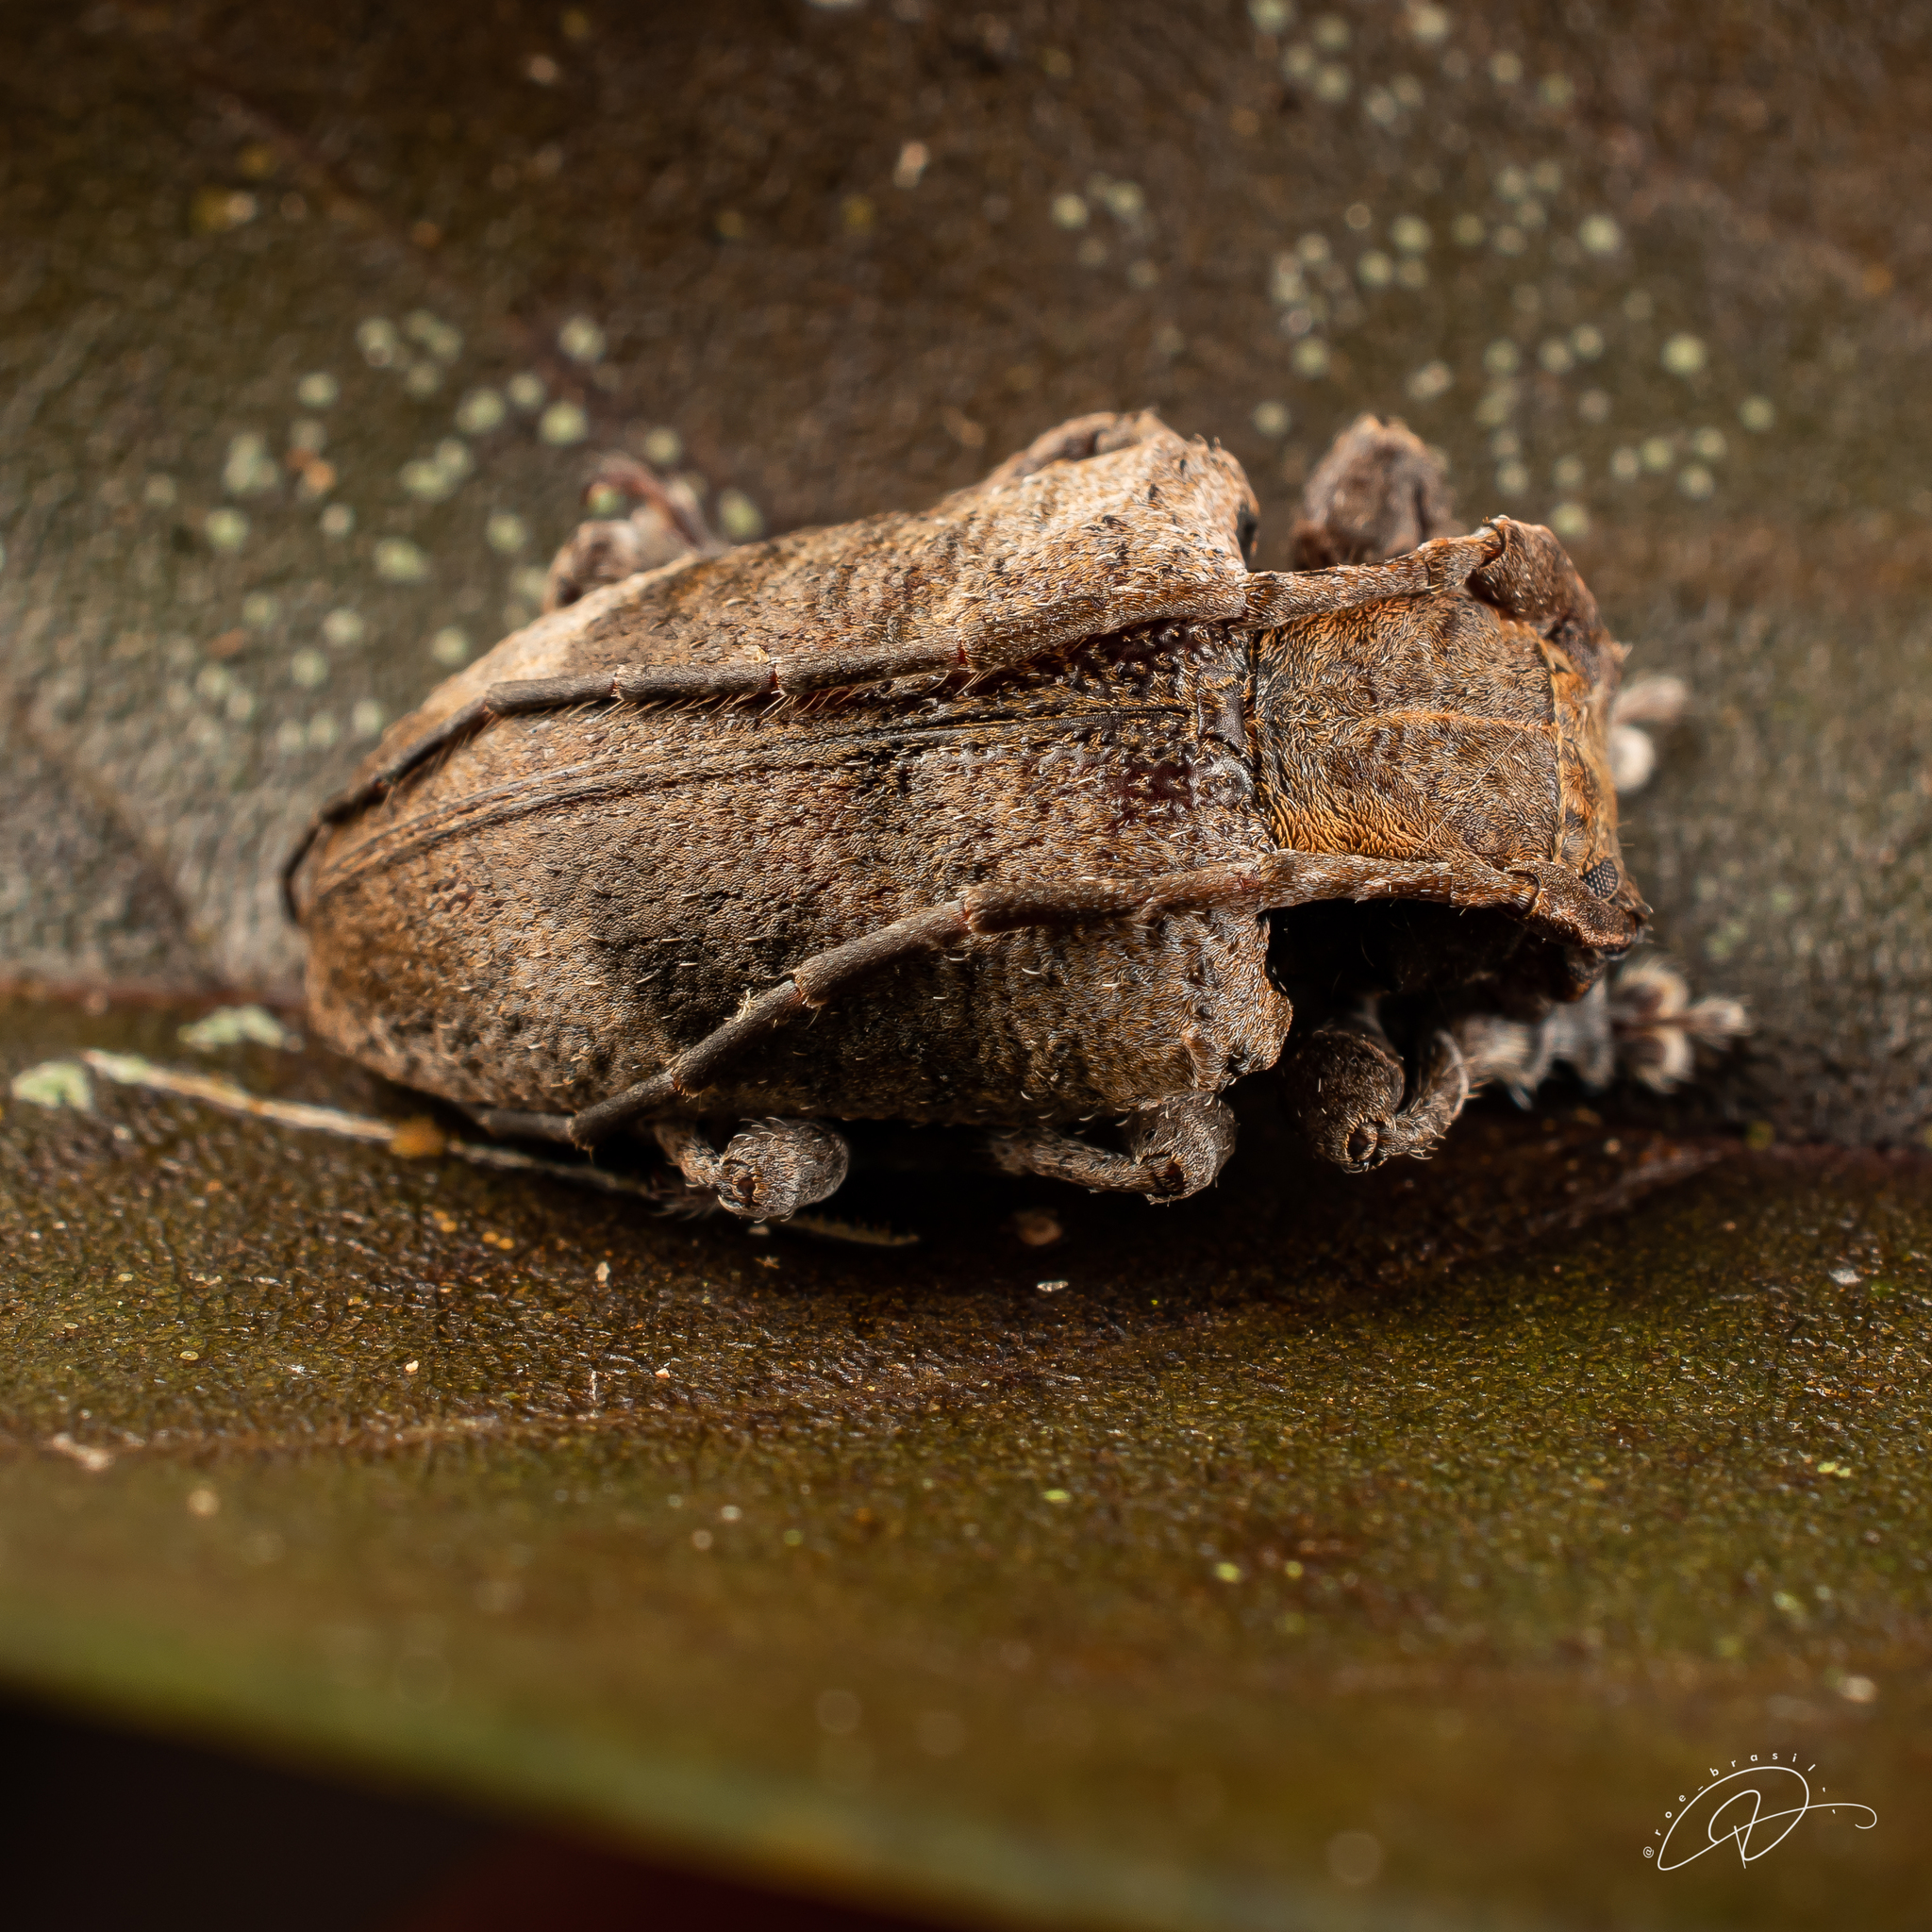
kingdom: Animalia
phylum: Arthropoda
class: Insecta
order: Coleoptera
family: Cerambycidae
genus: Aerenea
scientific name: Aerenea posticalis
